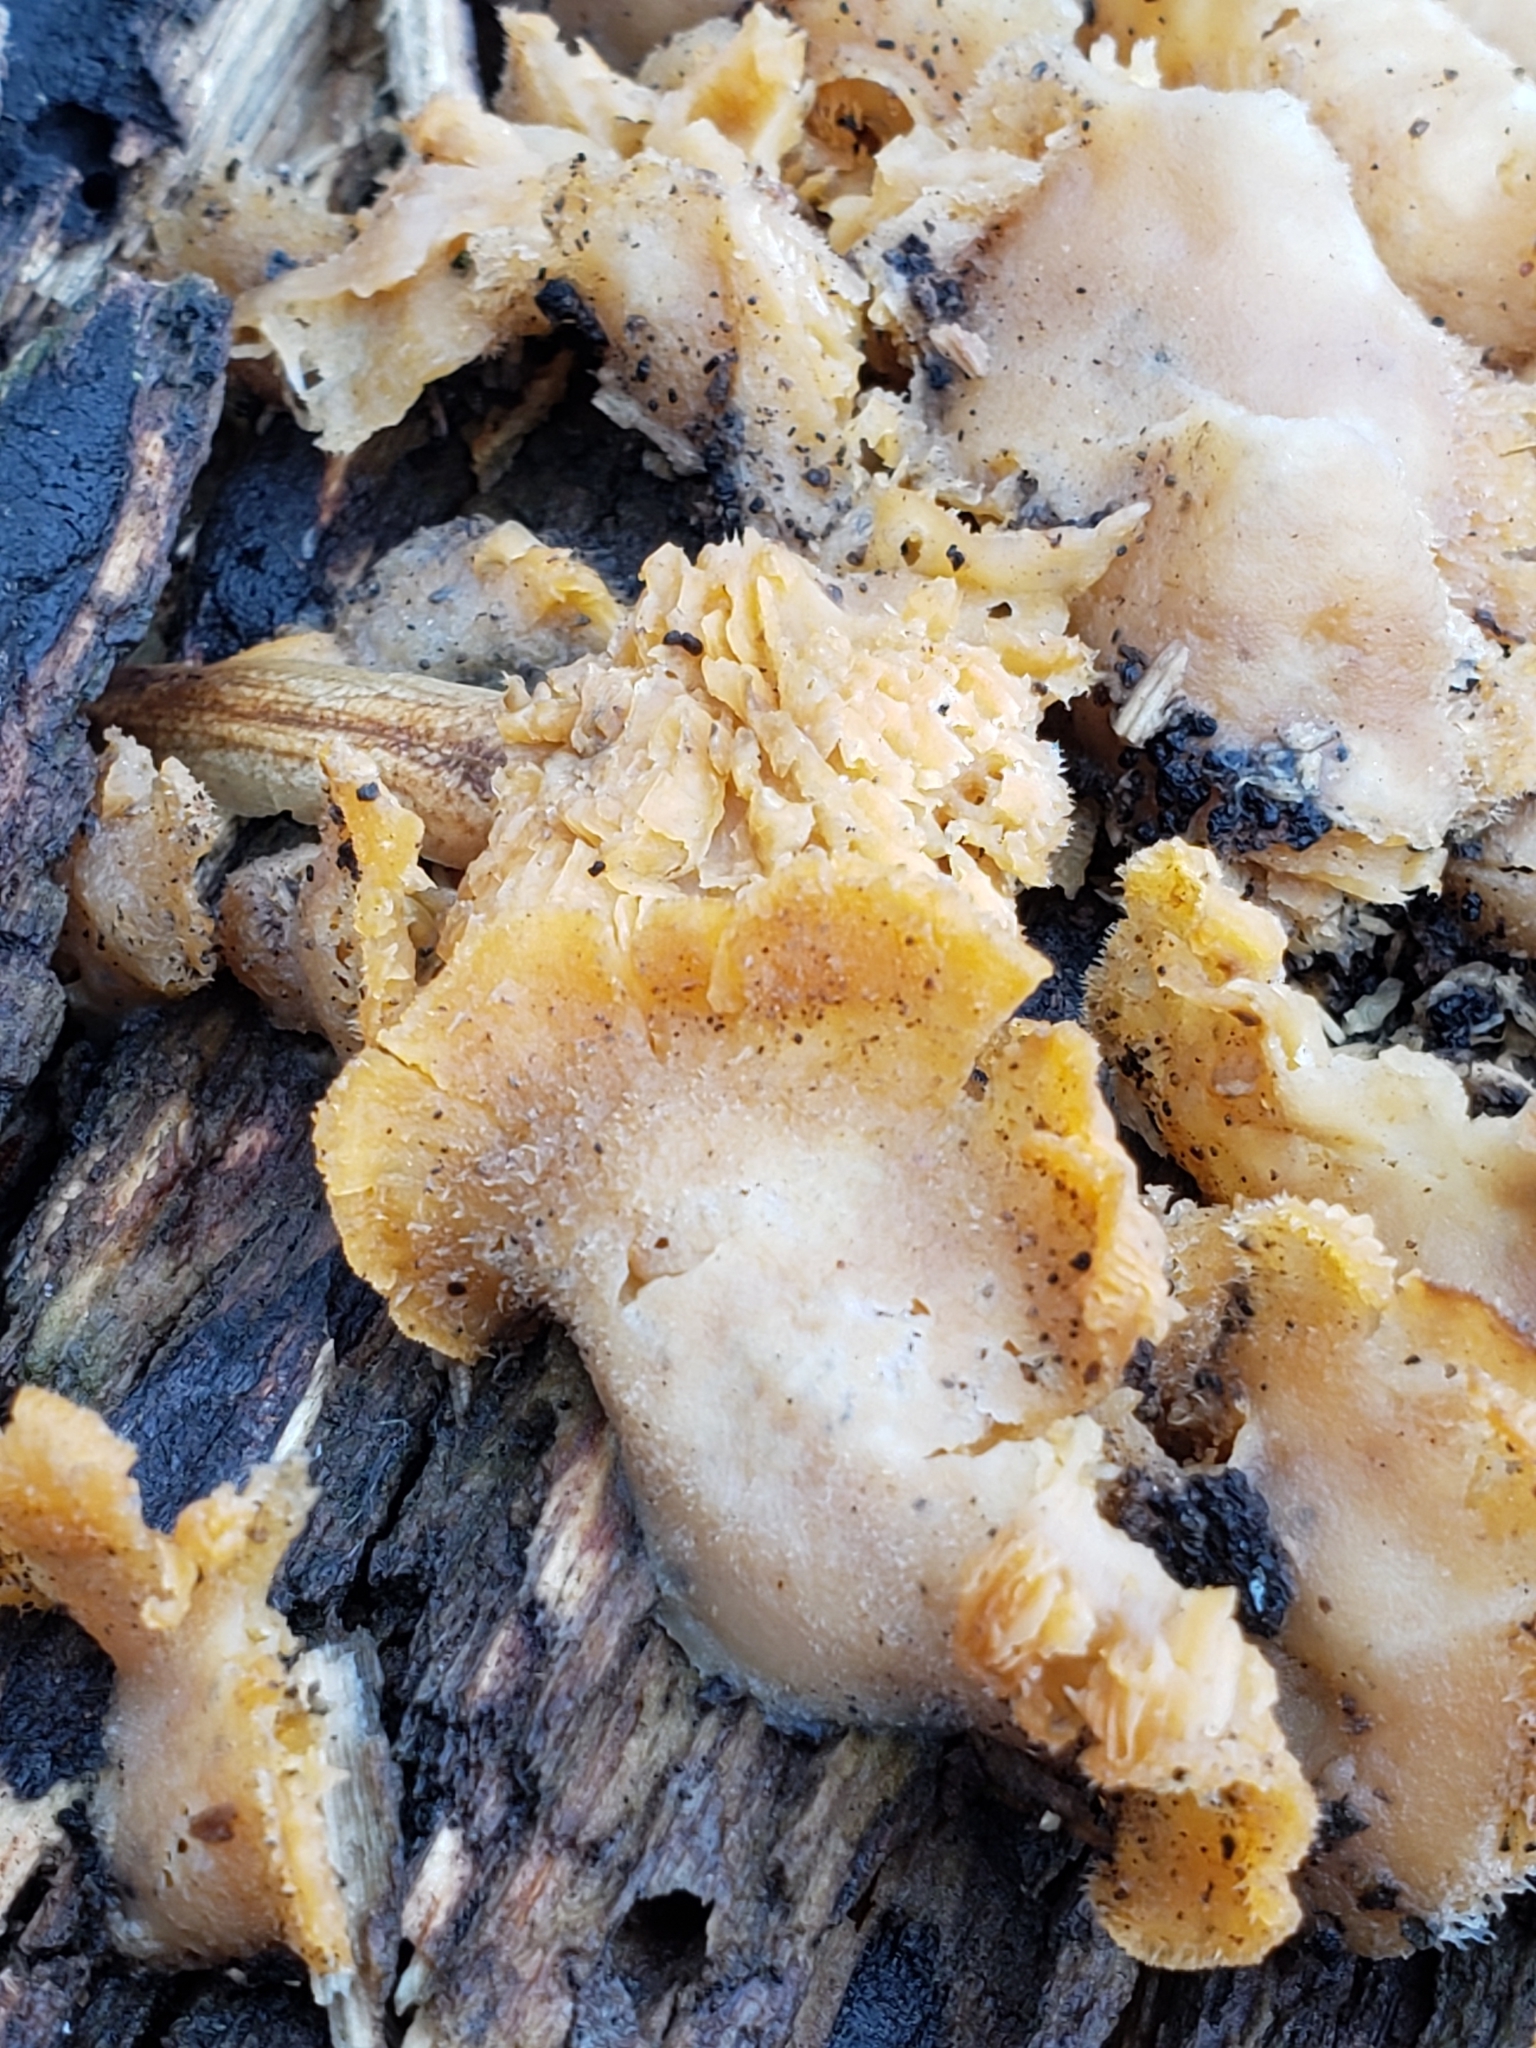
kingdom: Fungi
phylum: Basidiomycota
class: Agaricomycetes
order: Agaricales
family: Phyllotopsidaceae
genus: Phyllotopsis
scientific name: Phyllotopsis nidulans
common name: Orange mock oyster
